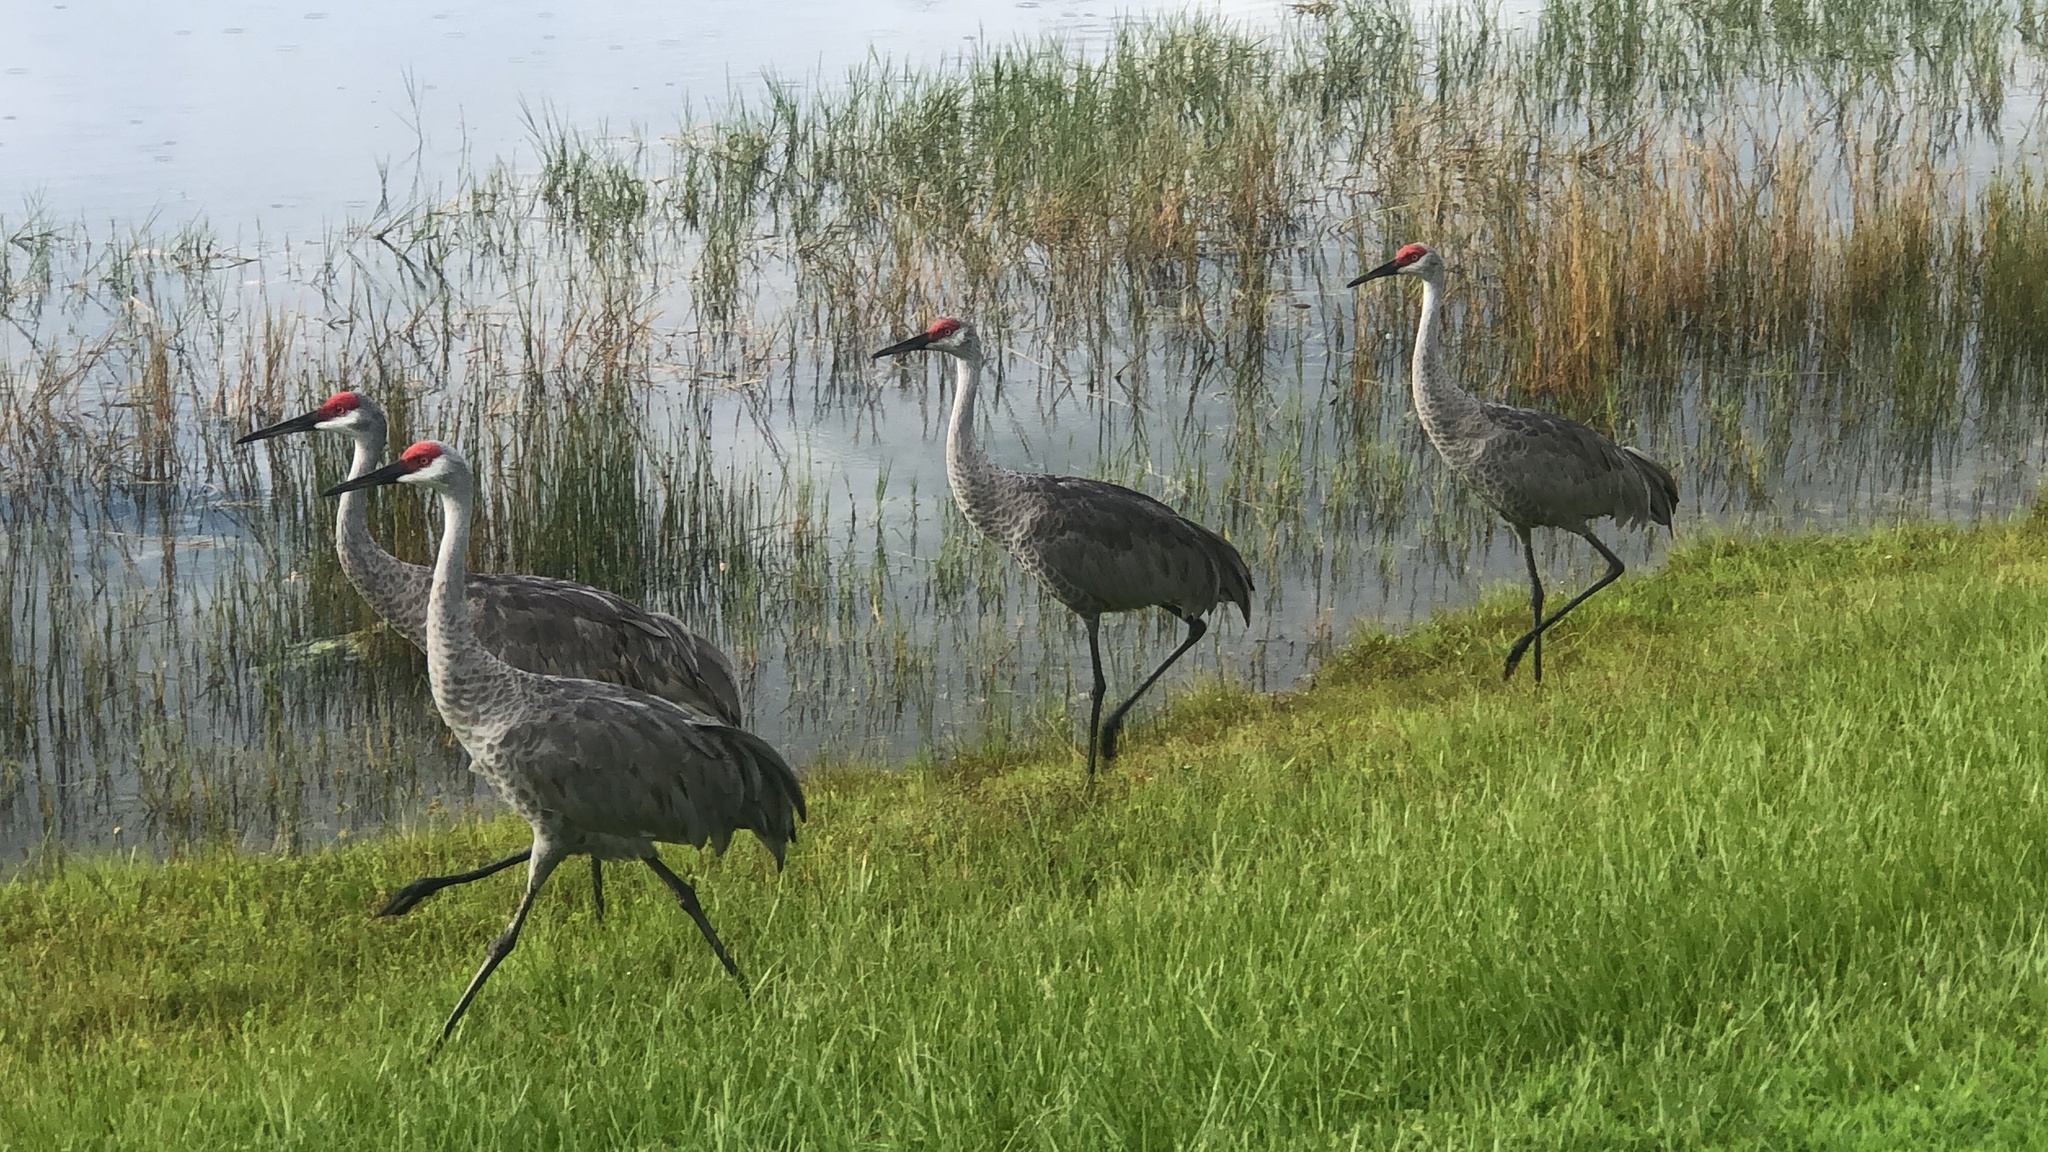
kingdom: Animalia
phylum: Chordata
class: Aves
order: Gruiformes
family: Gruidae
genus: Grus
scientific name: Grus canadensis
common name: Sandhill crane
